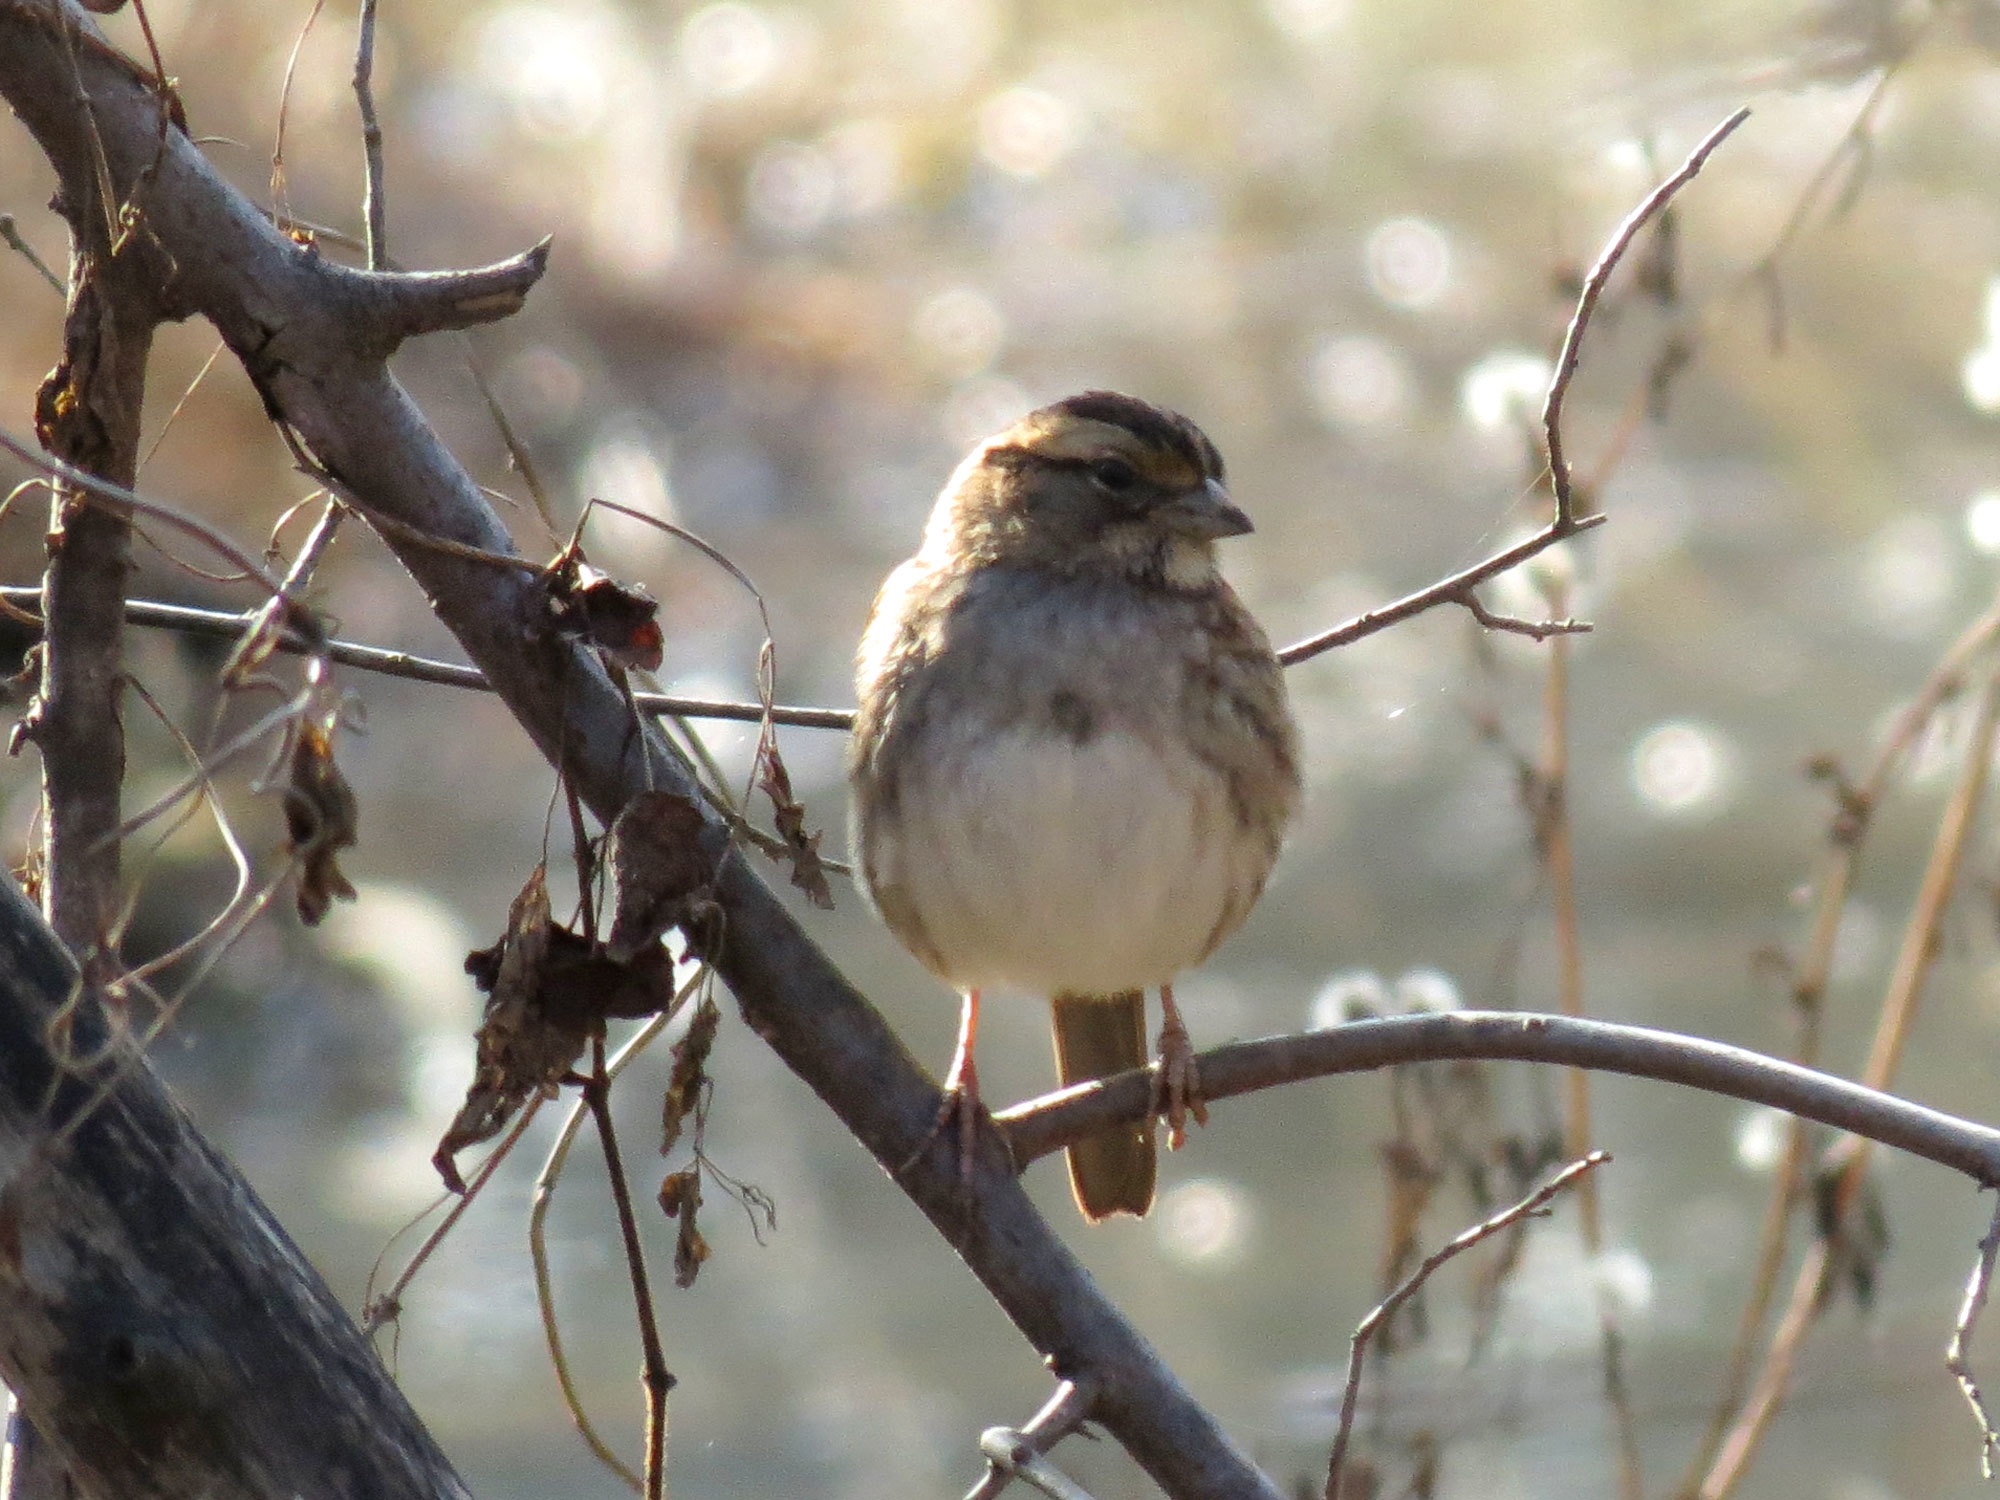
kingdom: Animalia
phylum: Chordata
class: Aves
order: Passeriformes
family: Passerellidae
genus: Zonotrichia
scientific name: Zonotrichia albicollis
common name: White-throated sparrow
